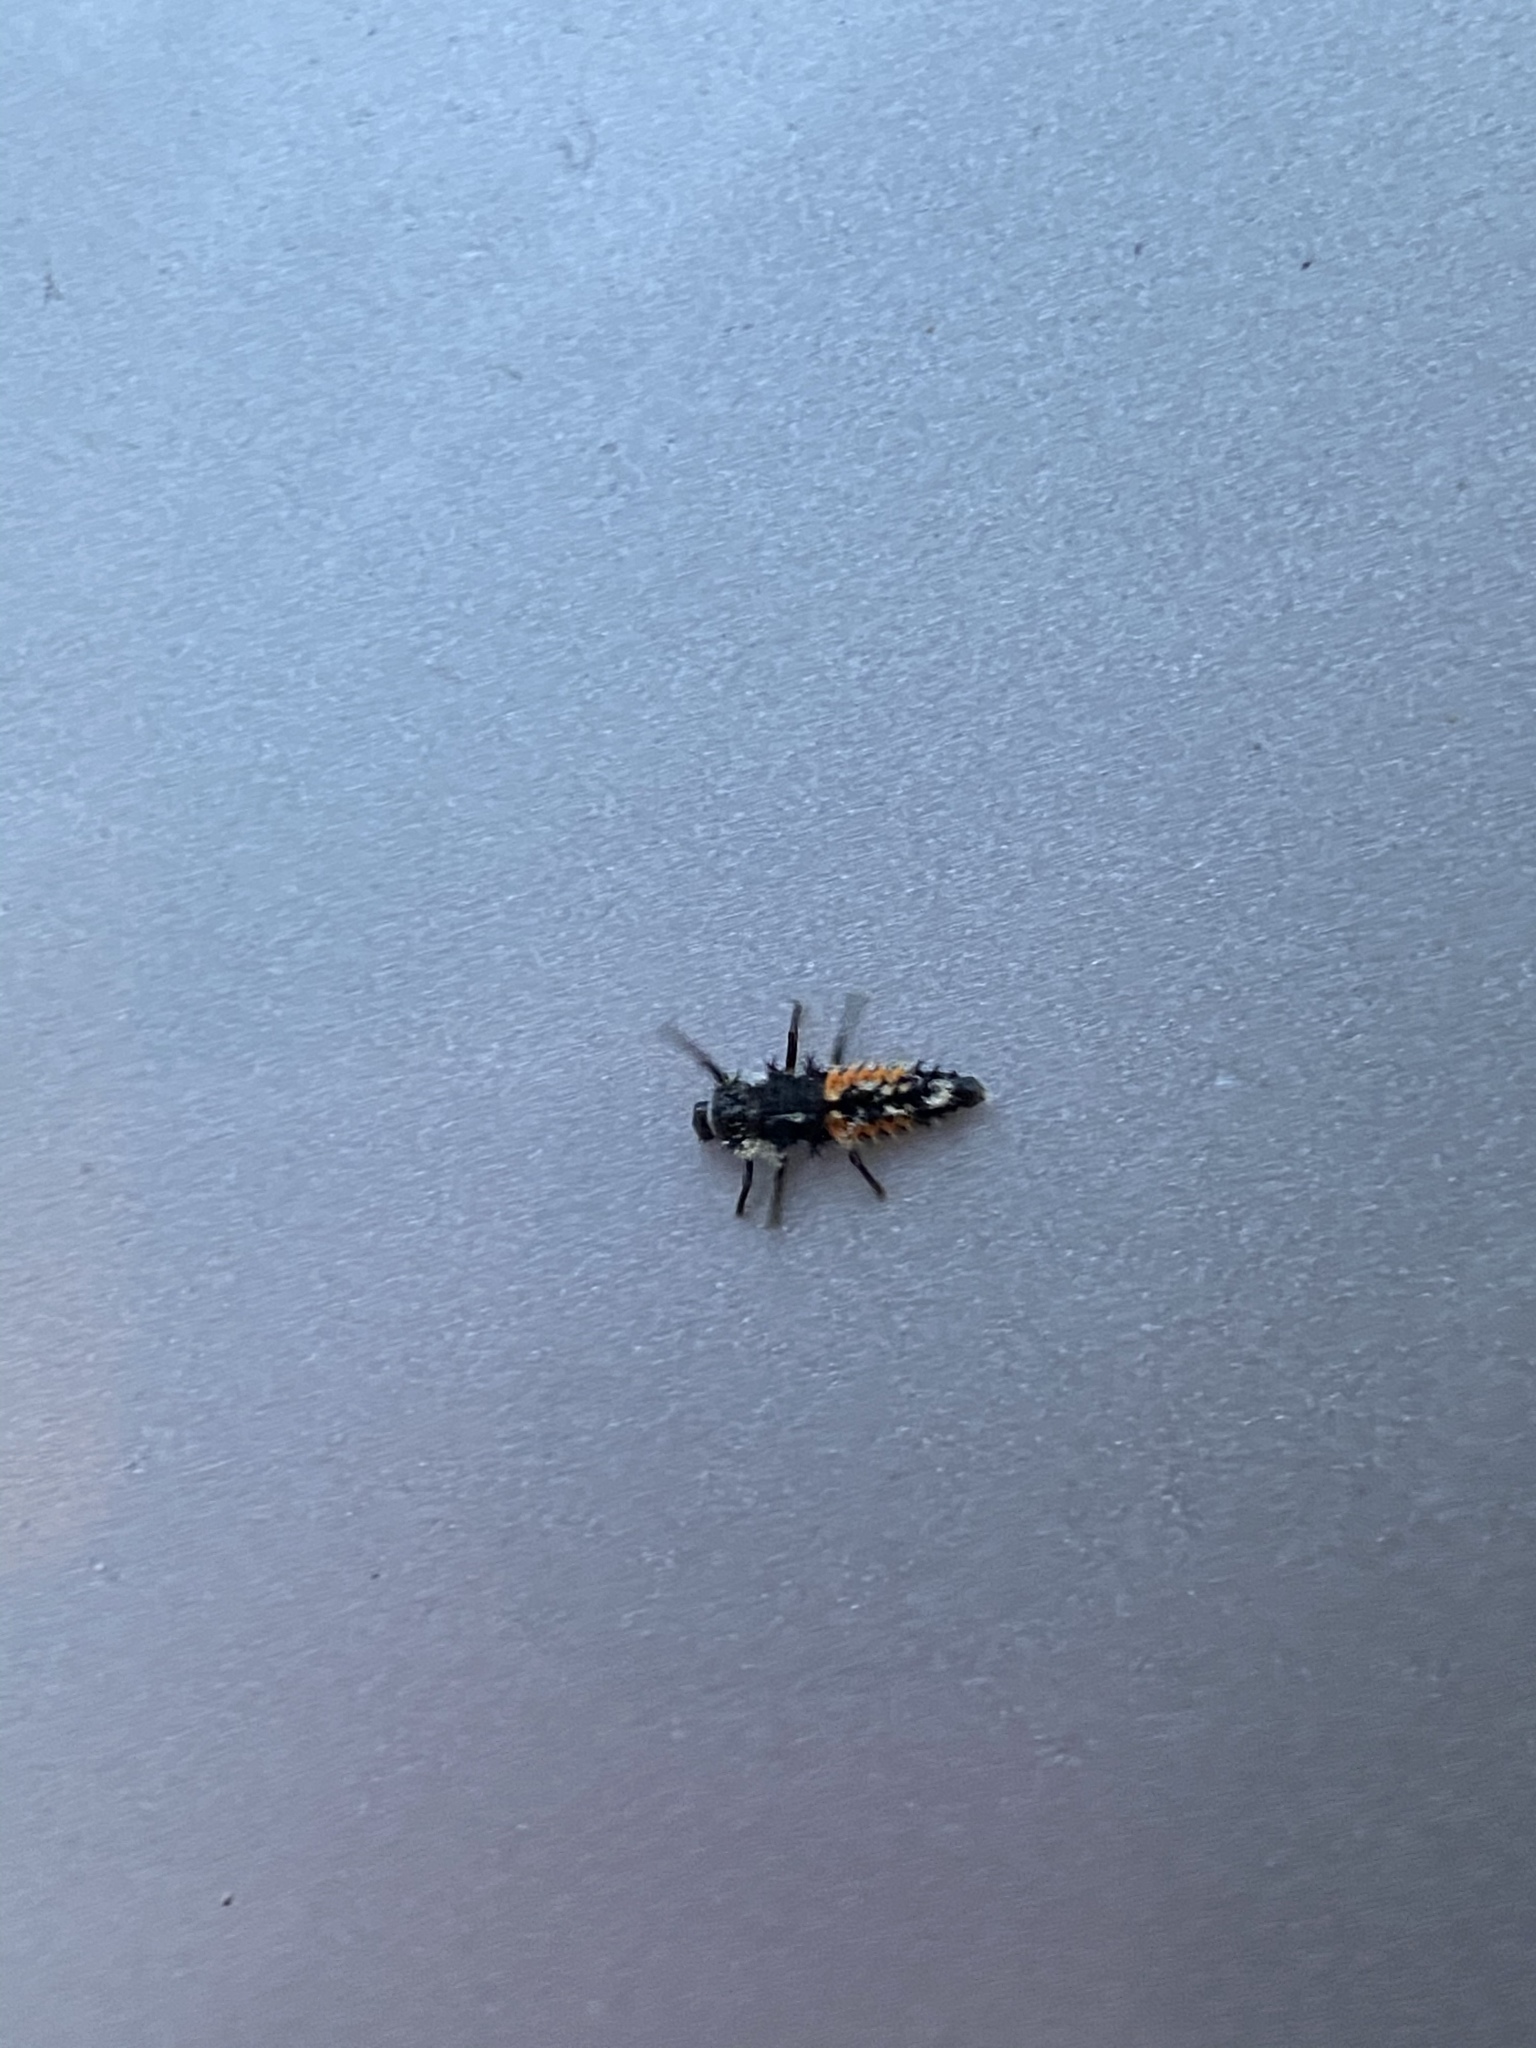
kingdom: Animalia
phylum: Arthropoda
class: Insecta
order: Coleoptera
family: Coccinellidae
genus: Harmonia
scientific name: Harmonia axyridis
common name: Harlequin ladybird
